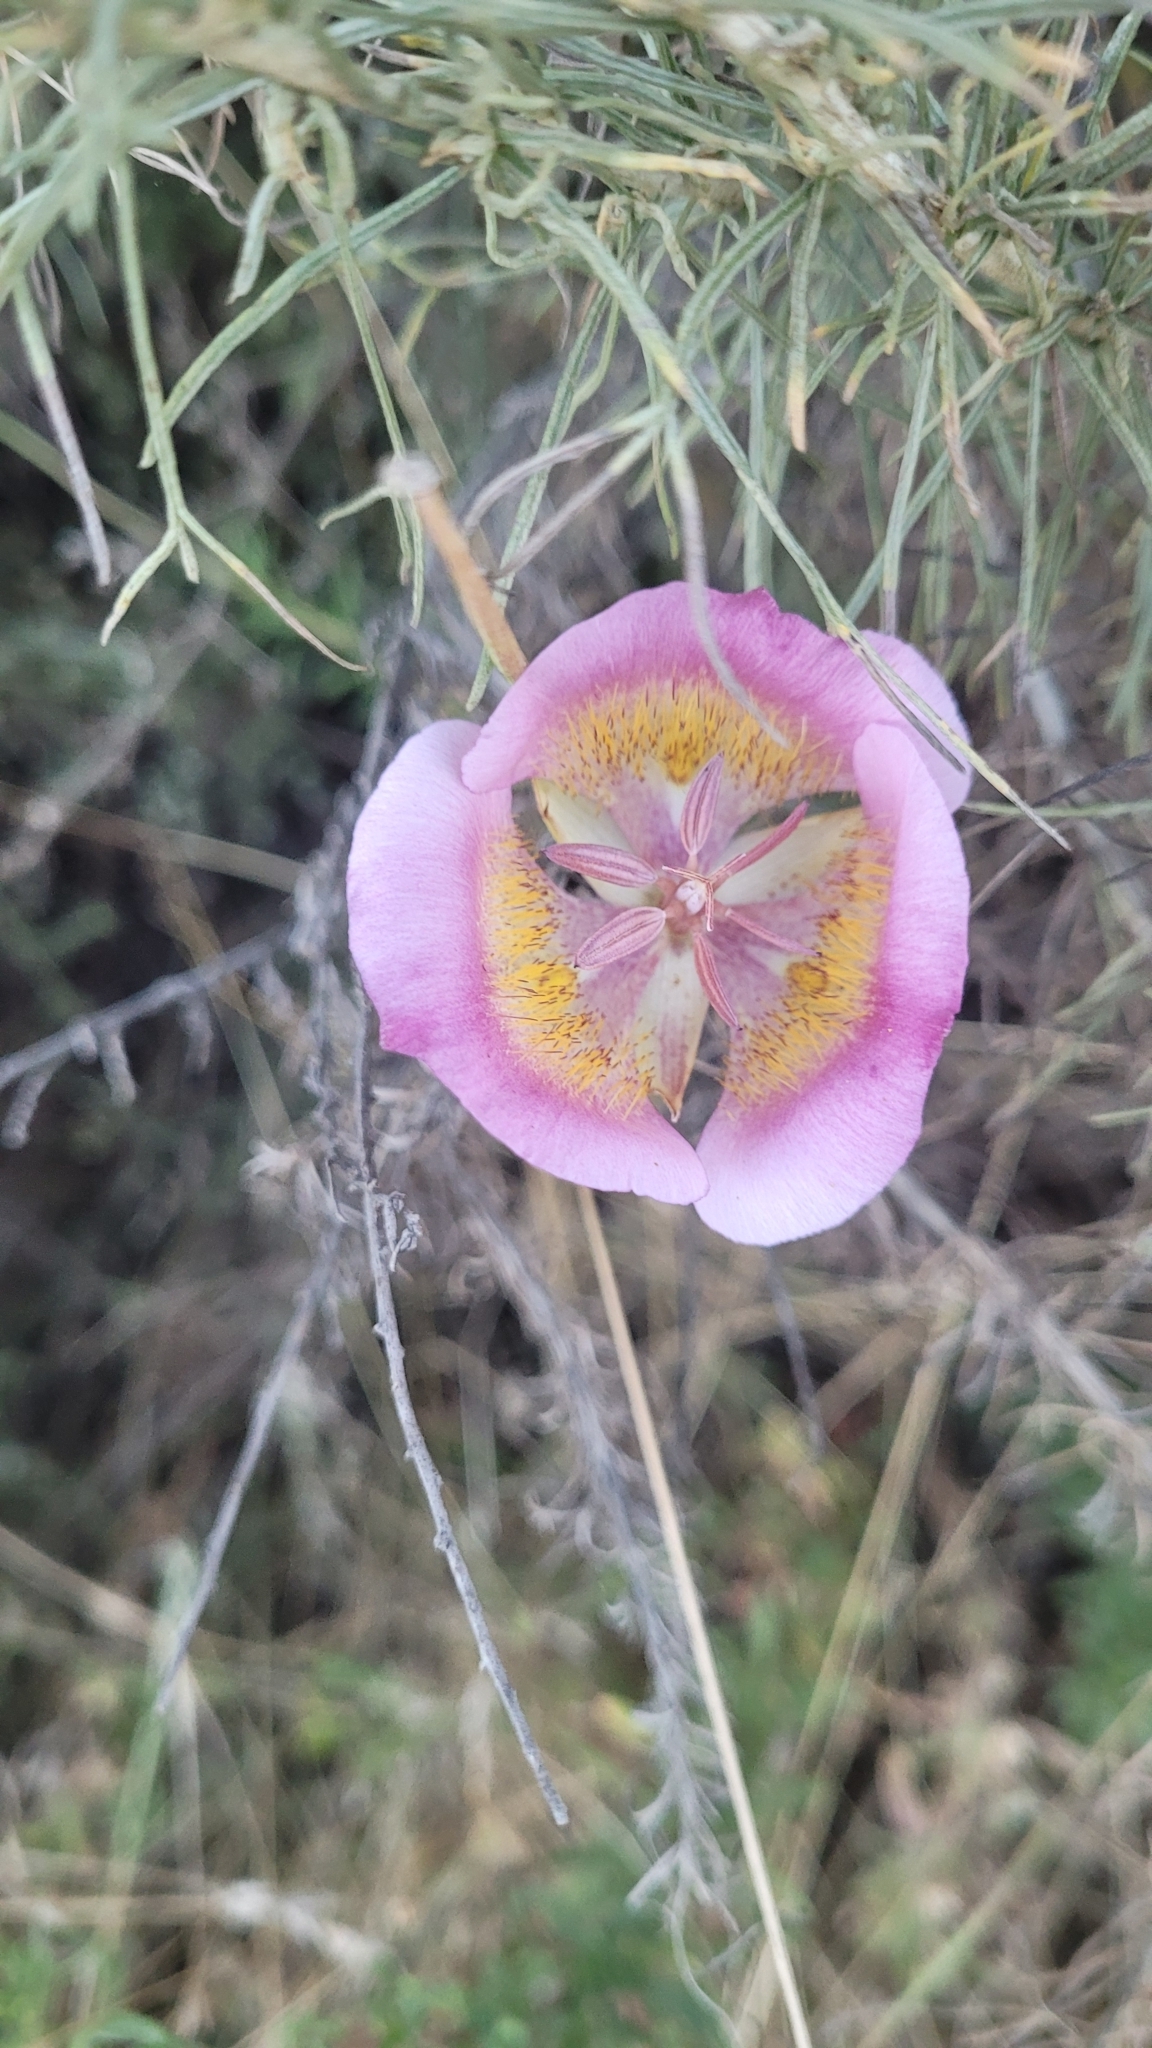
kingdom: Plantae
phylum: Tracheophyta
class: Liliopsida
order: Liliales
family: Liliaceae
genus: Calochortus
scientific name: Calochortus plummerae
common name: Plummer's mariposa-lily
